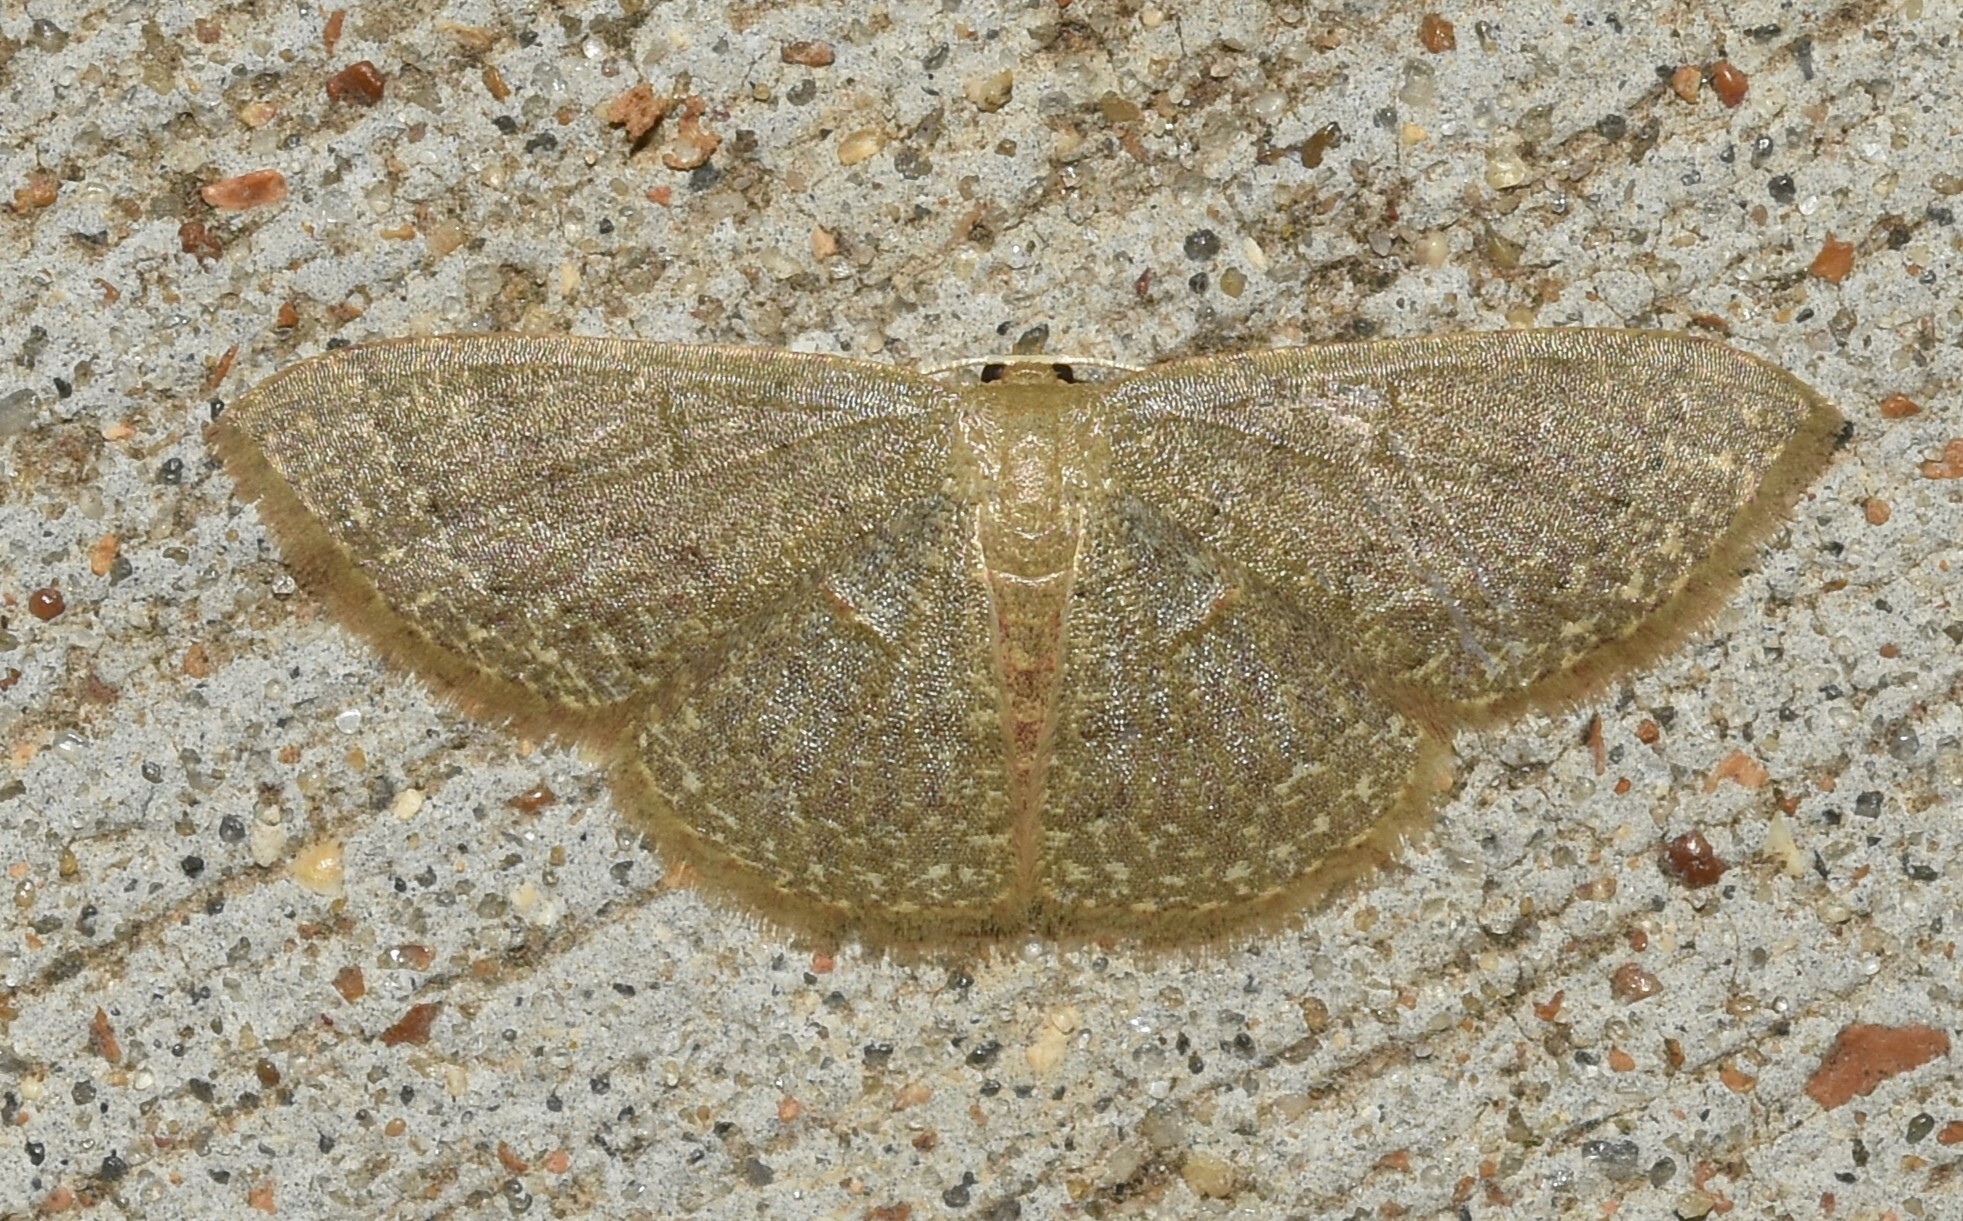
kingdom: Animalia
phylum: Arthropoda
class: Insecta
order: Lepidoptera
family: Geometridae
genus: Pleuroprucha
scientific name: Pleuroprucha insulsaria
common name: Common tan wave
